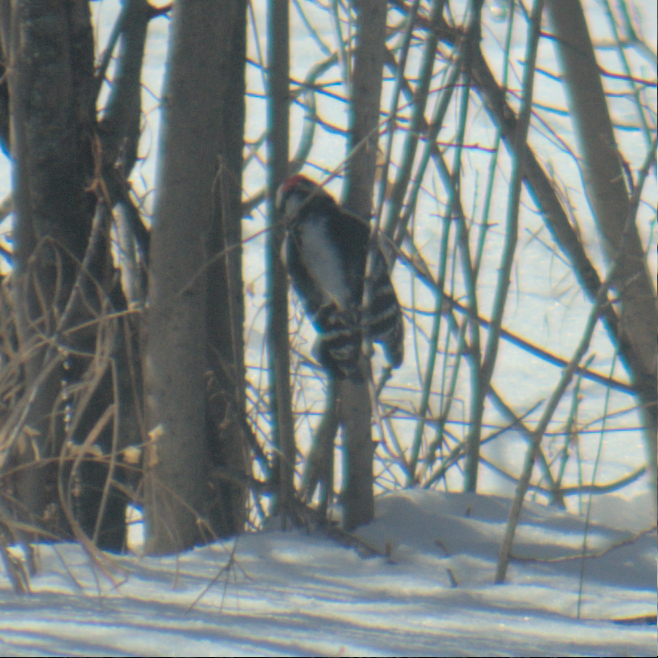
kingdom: Animalia
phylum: Chordata
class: Aves
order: Piciformes
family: Picidae
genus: Dryobates
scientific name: Dryobates pubescens
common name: Downy woodpecker
